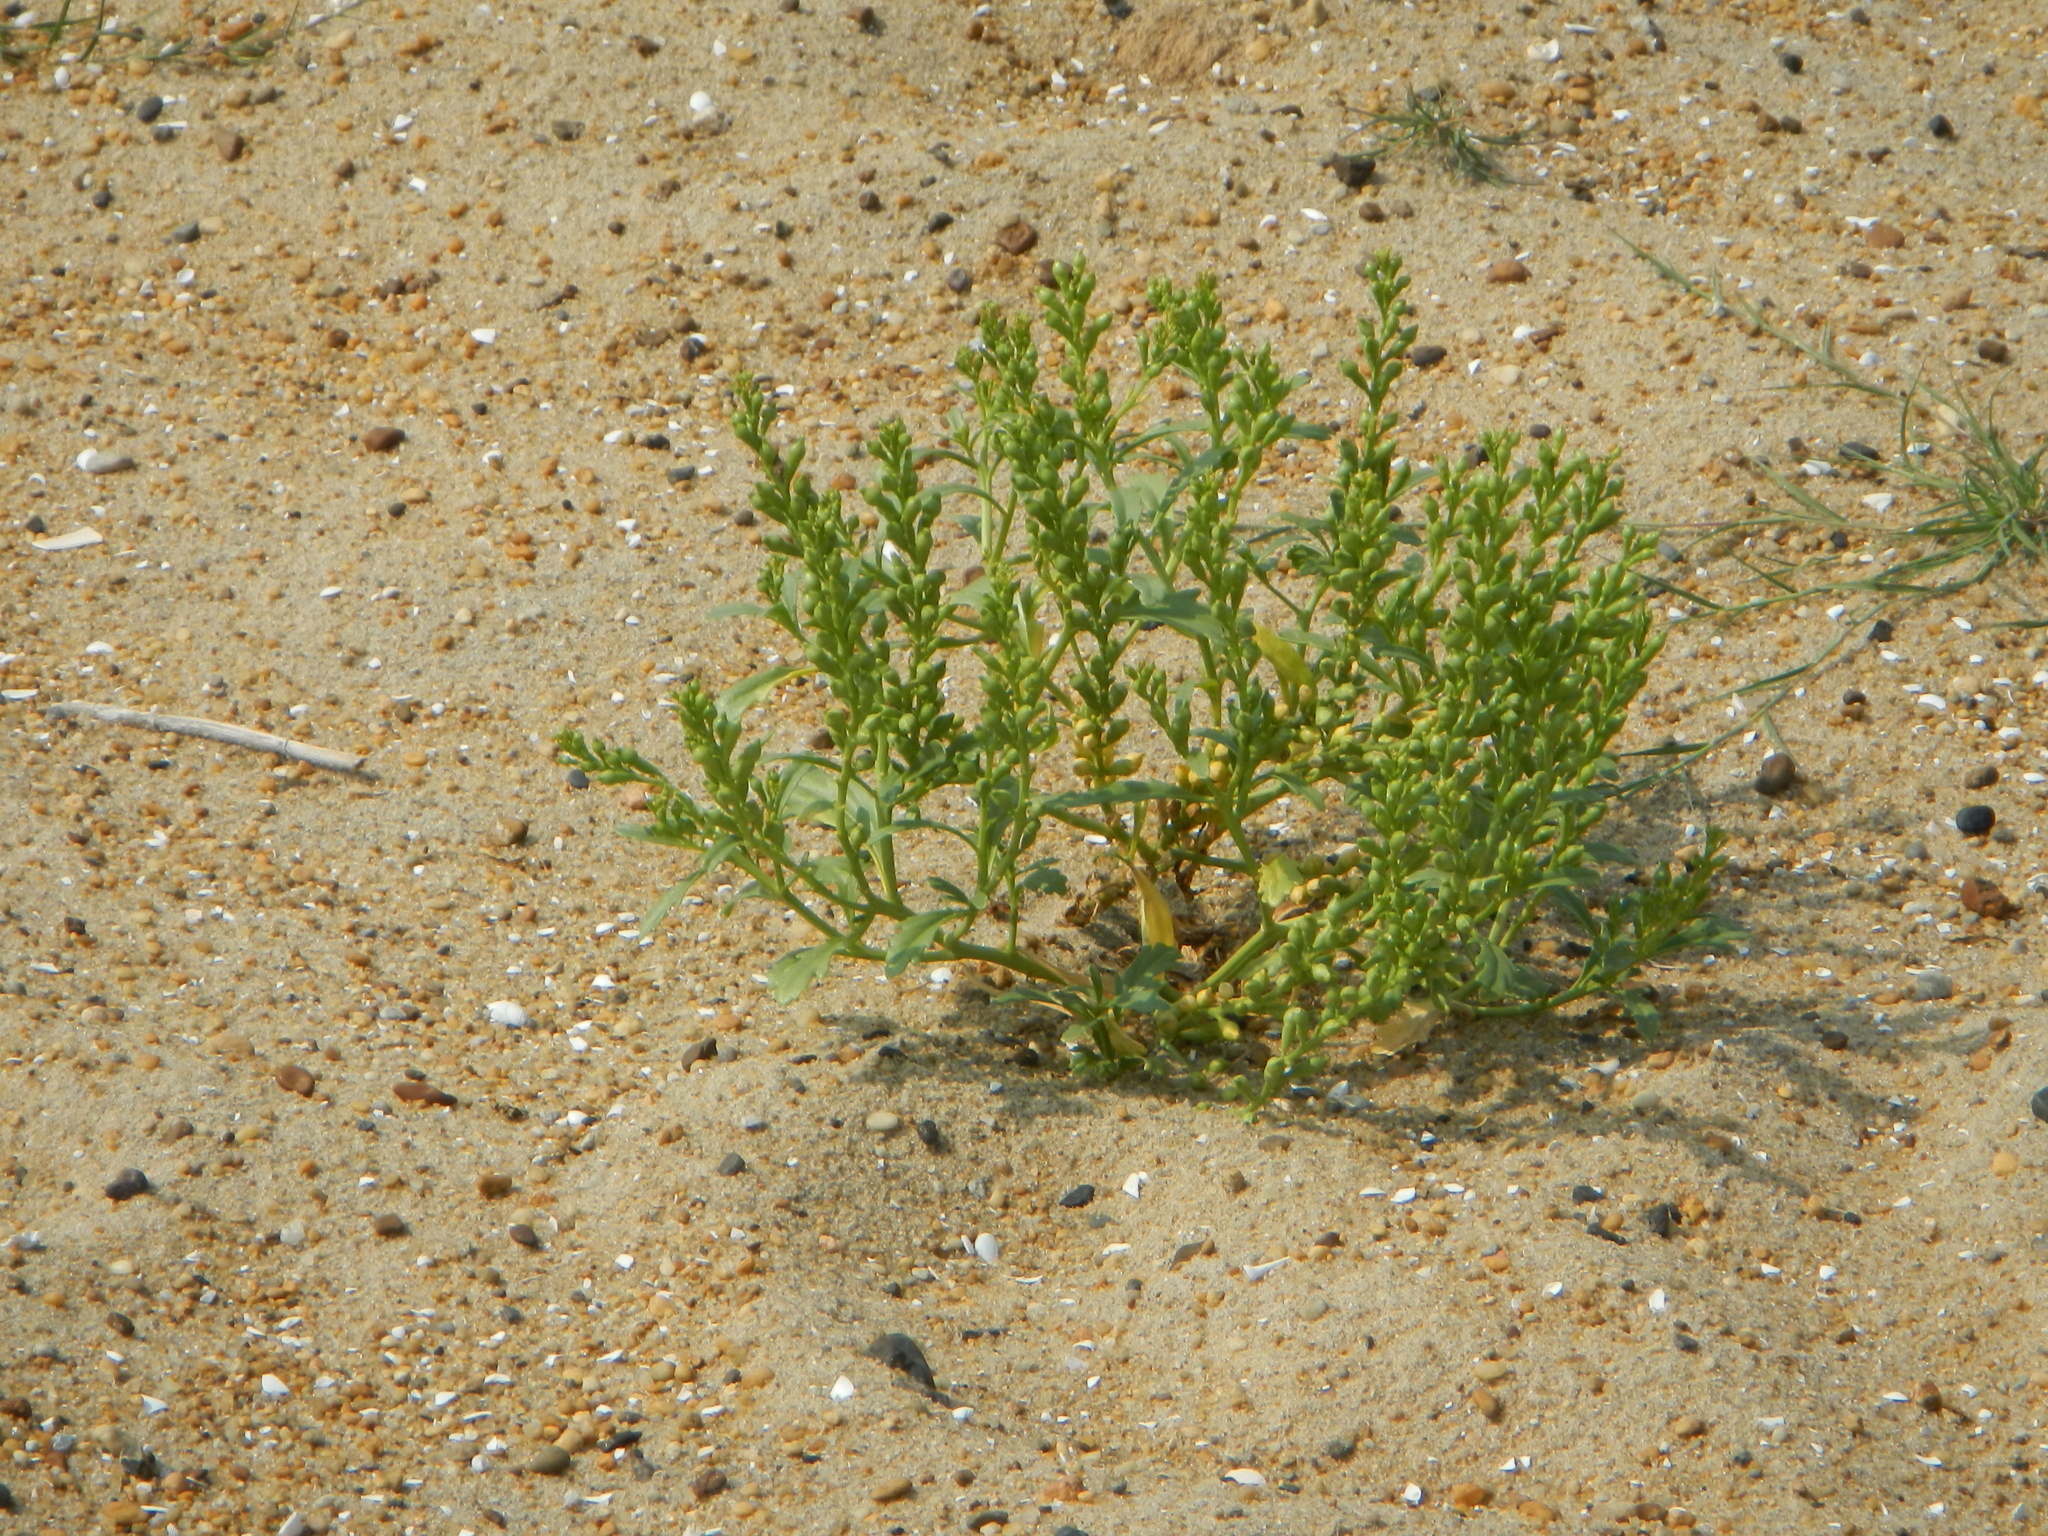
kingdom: Plantae
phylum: Tracheophyta
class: Magnoliopsida
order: Brassicales
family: Brassicaceae
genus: Cakile
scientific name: Cakile edentula
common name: American sea rocket
